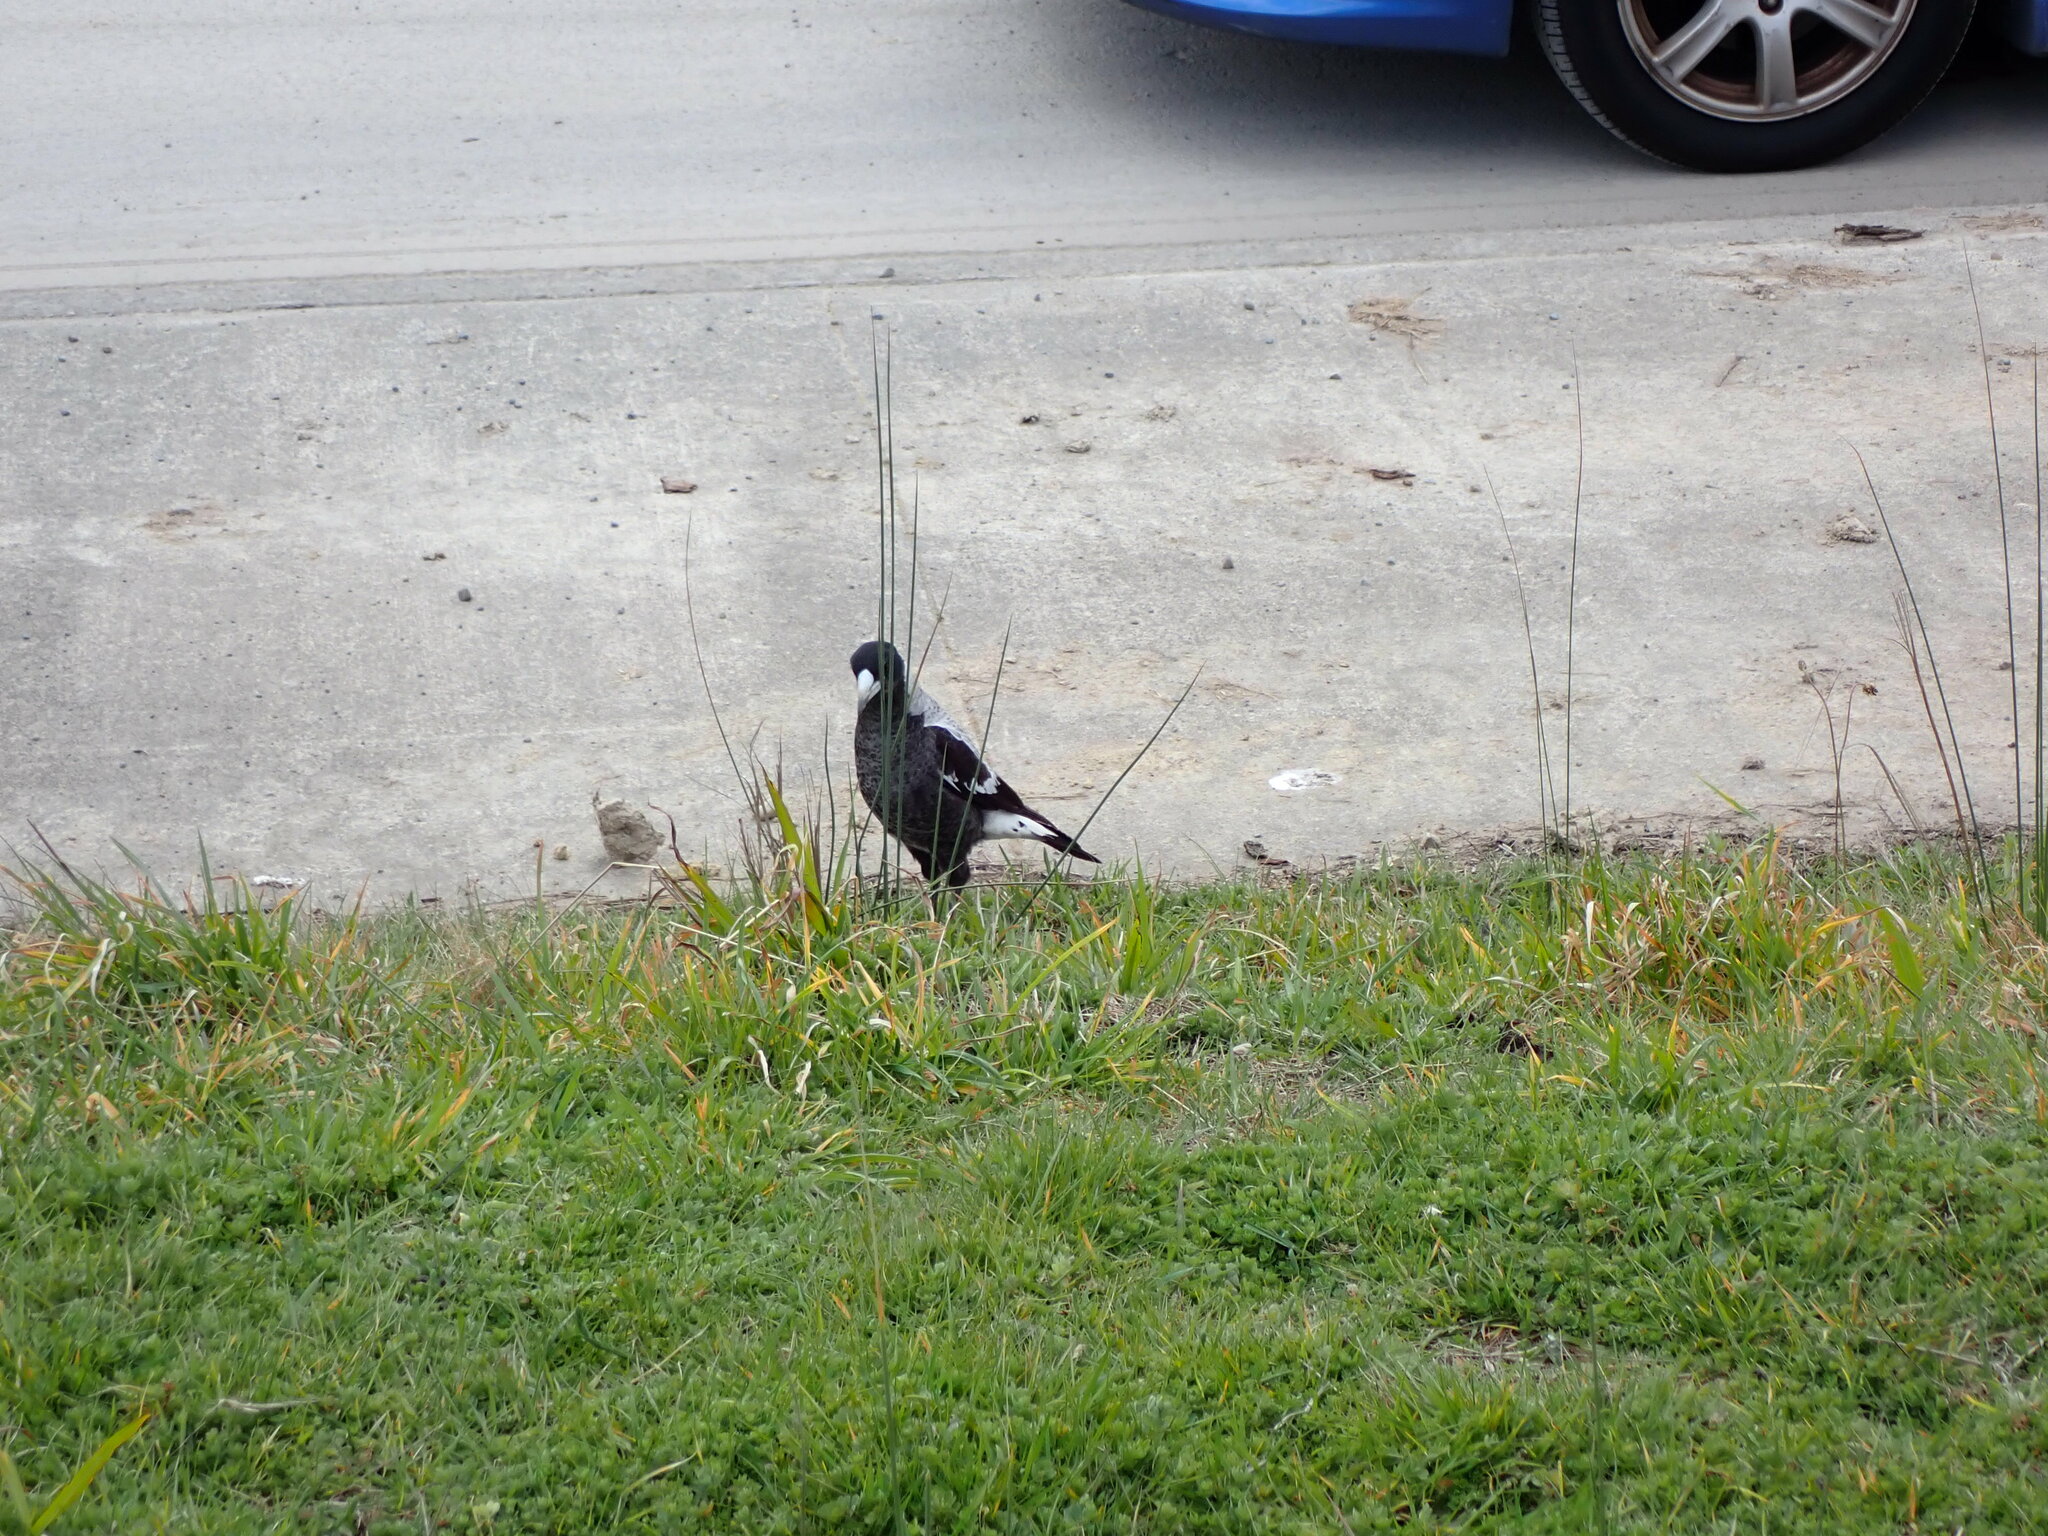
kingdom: Animalia
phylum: Chordata
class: Aves
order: Passeriformes
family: Cracticidae
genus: Gymnorhina
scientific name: Gymnorhina tibicen
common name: Australian magpie
